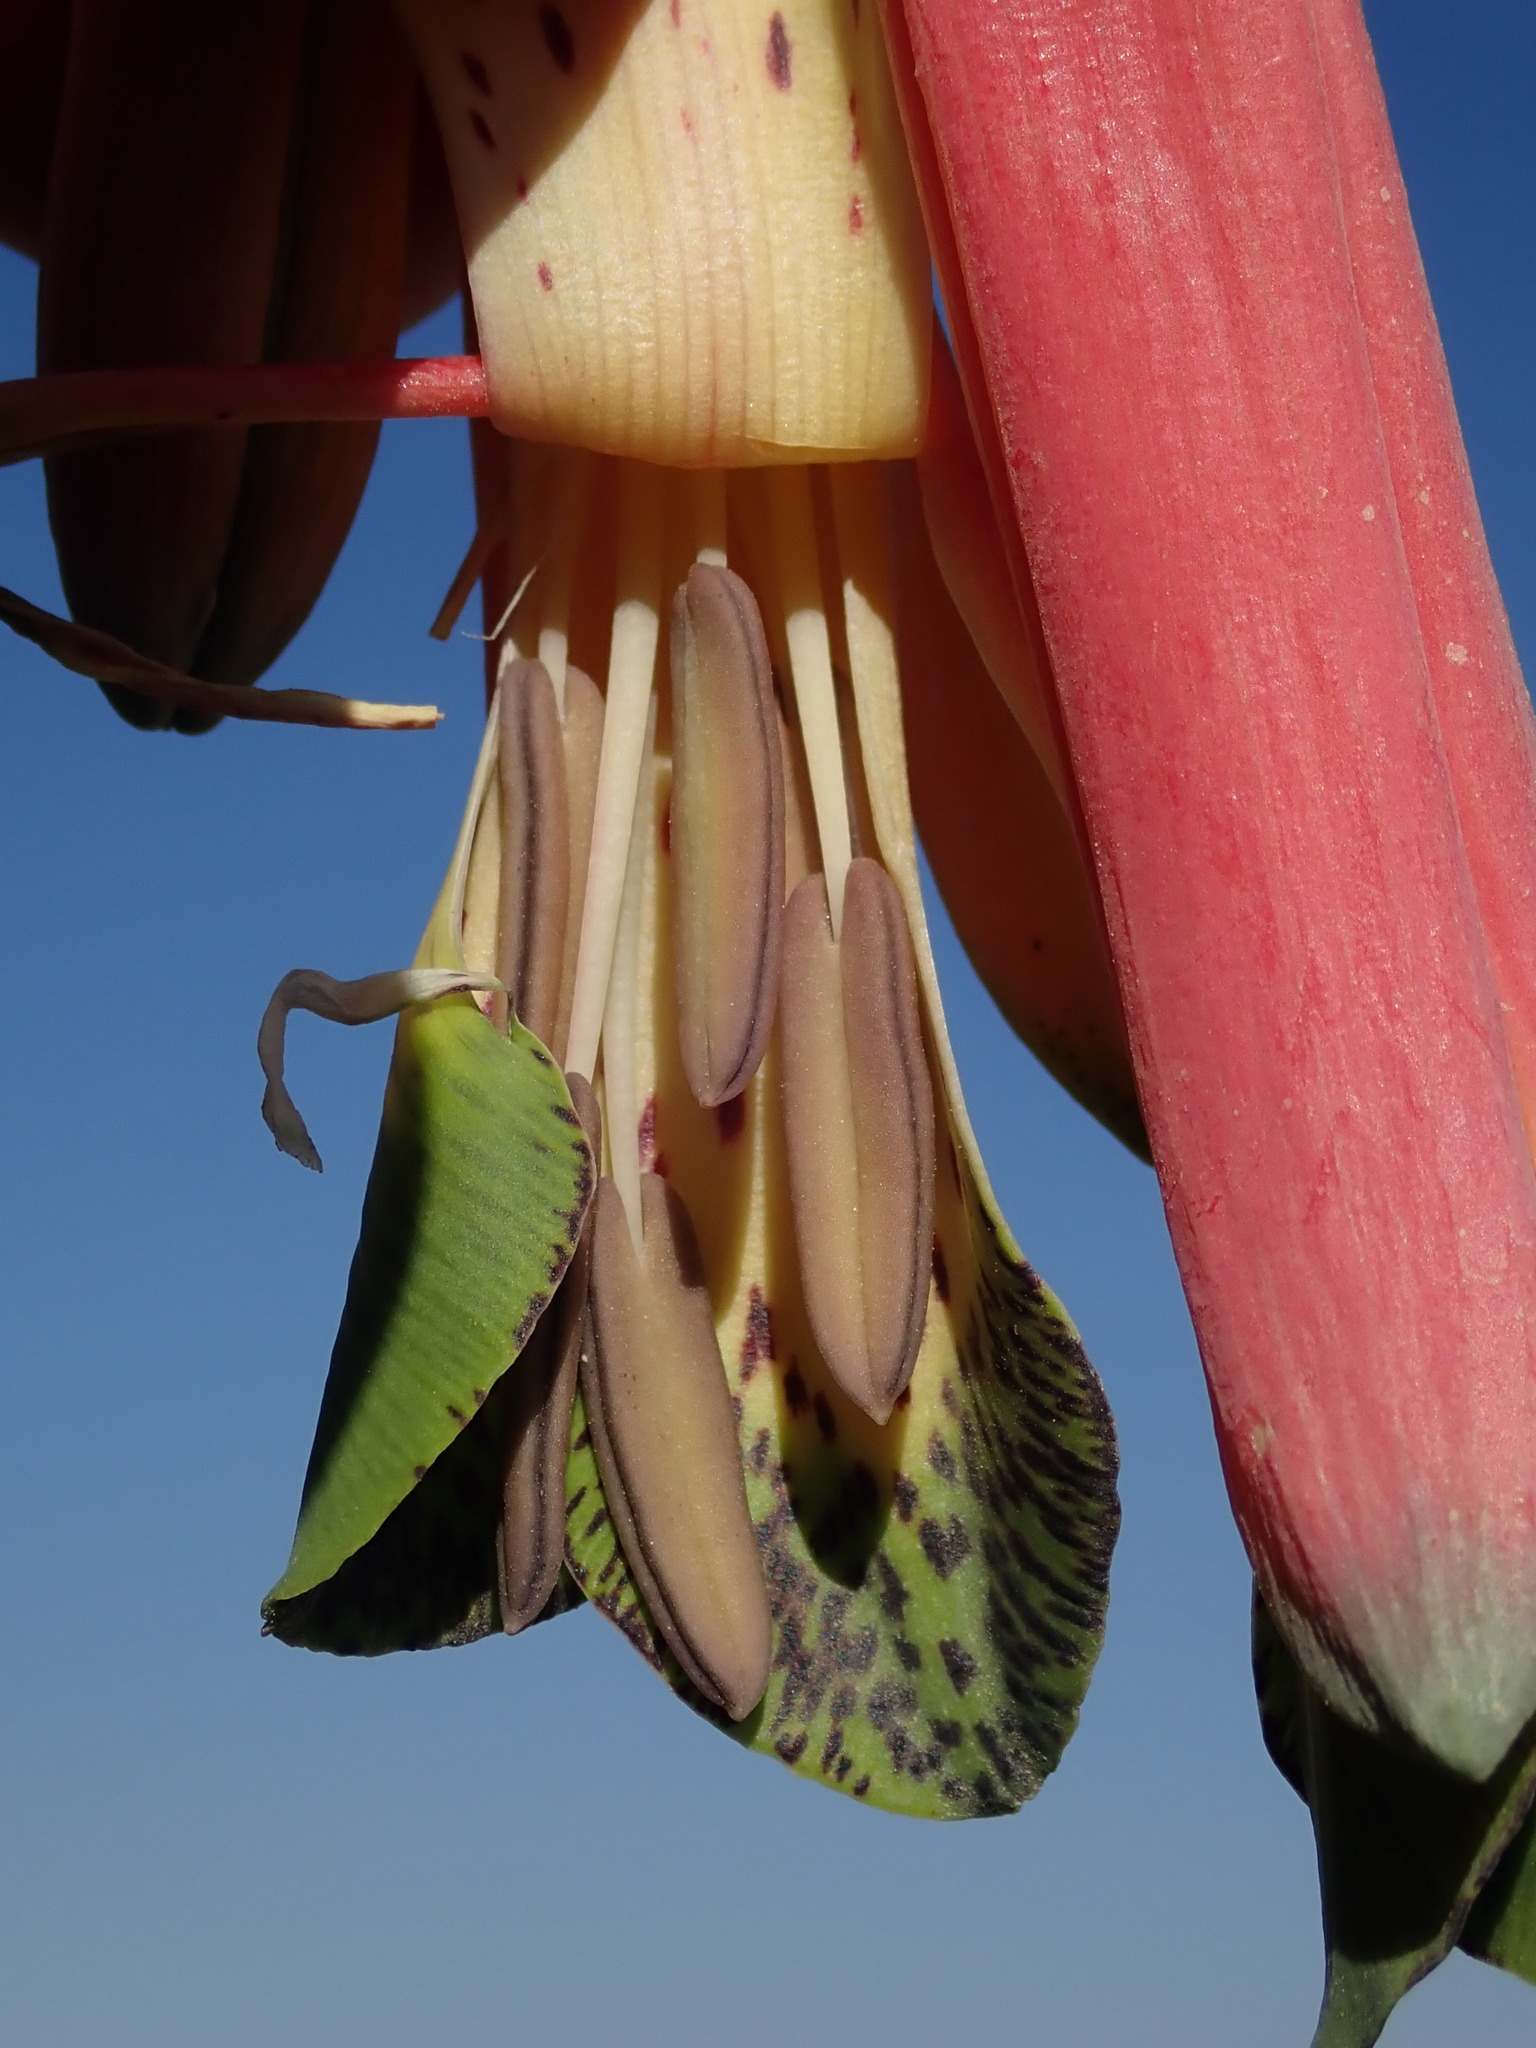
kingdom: Plantae
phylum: Tracheophyta
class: Liliopsida
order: Liliales
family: Alstroemeriaceae
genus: Bomarea
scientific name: Bomarea andimarcana
